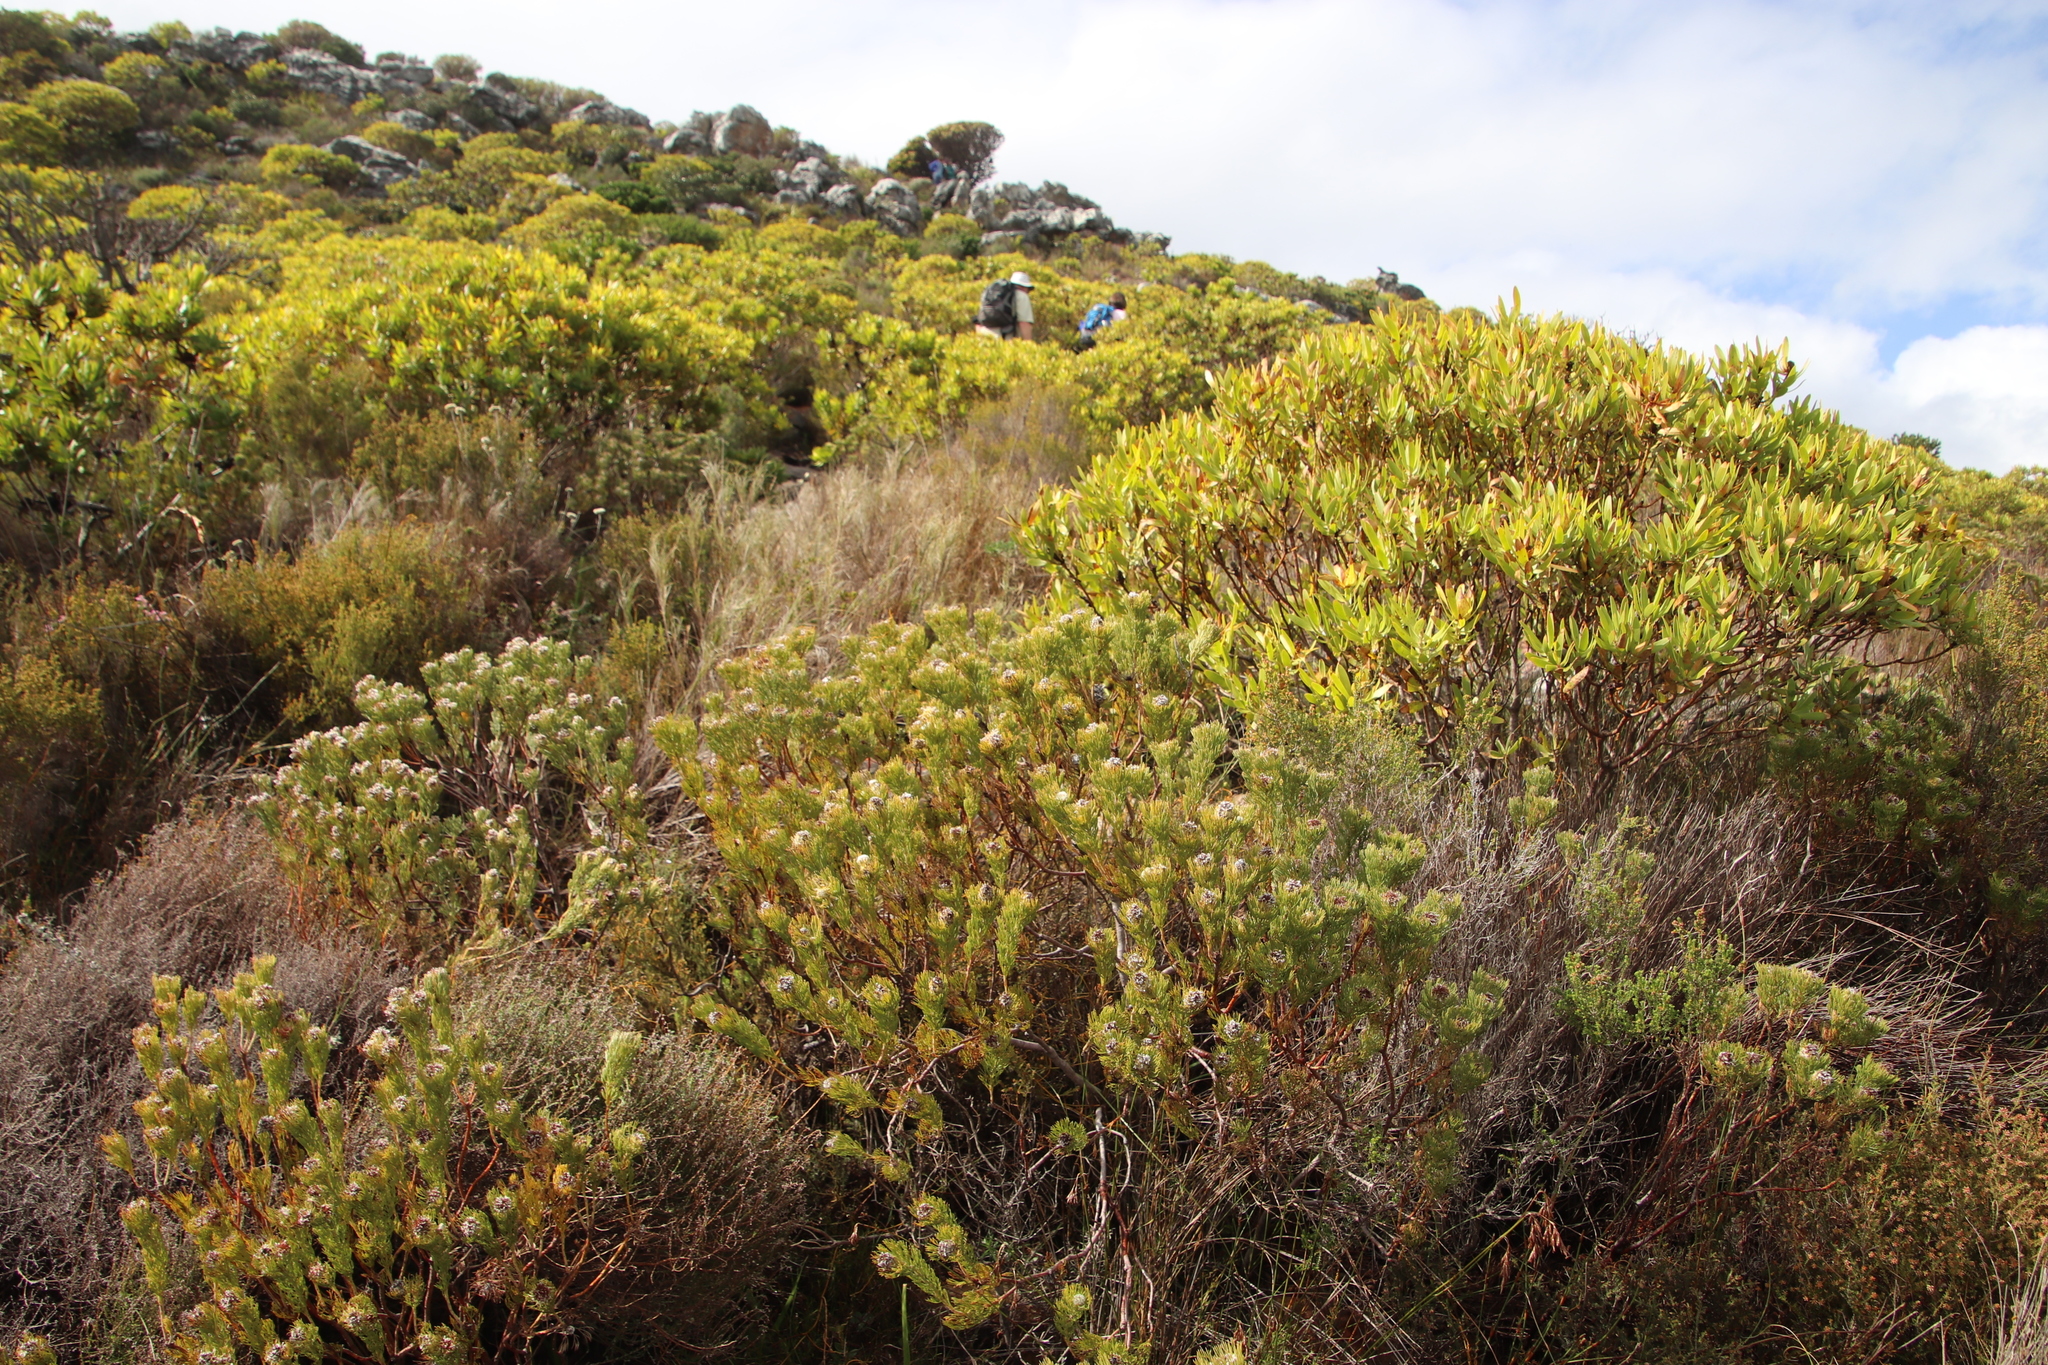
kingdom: Plantae
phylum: Tracheophyta
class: Magnoliopsida
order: Proteales
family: Proteaceae
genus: Serruria
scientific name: Serruria villosa
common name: Golden spiderhead
